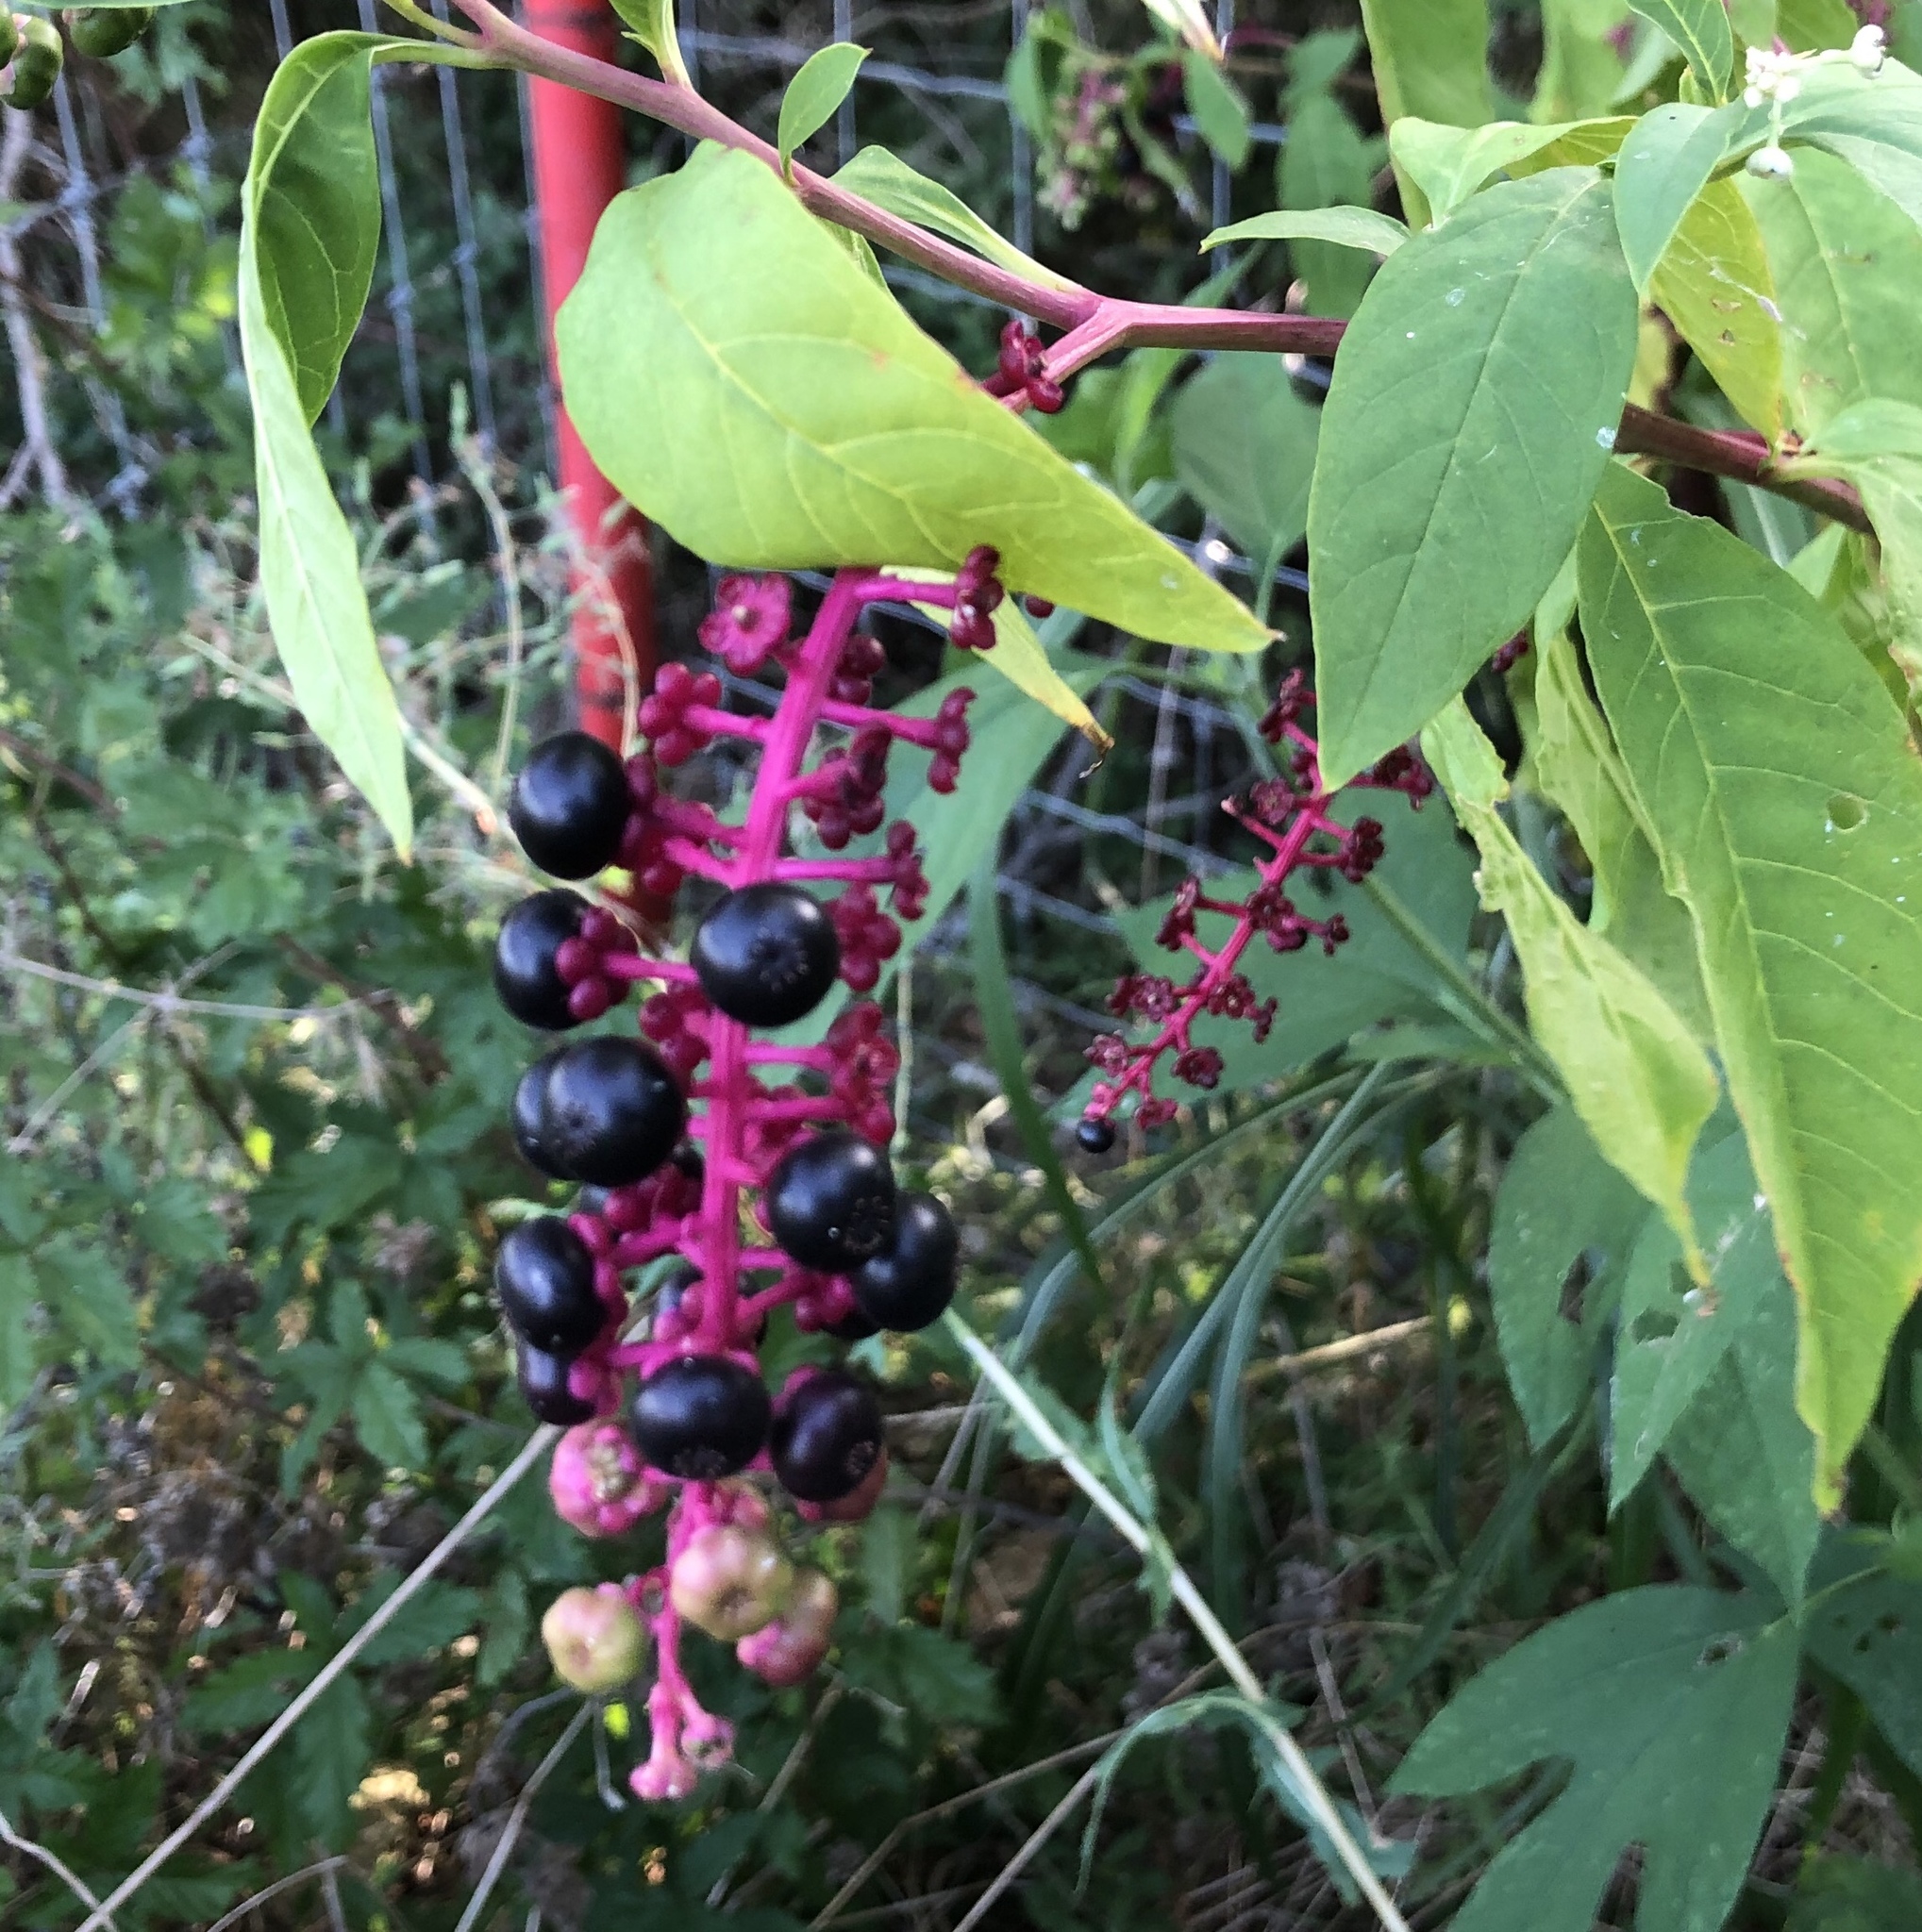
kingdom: Plantae
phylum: Tracheophyta
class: Magnoliopsida
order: Caryophyllales
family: Phytolaccaceae
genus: Phytolacca
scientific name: Phytolacca americana
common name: American pokeweed
